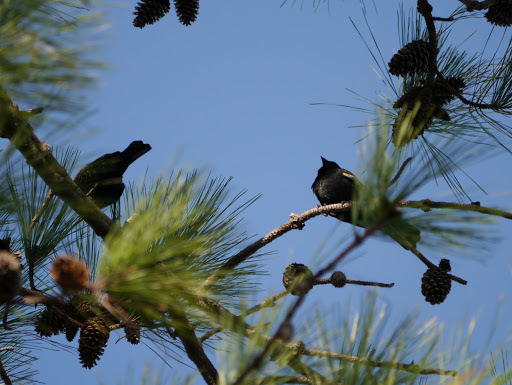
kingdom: Animalia
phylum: Chordata
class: Aves
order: Passeriformes
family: Icteridae
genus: Agelaius
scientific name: Agelaius phoeniceus
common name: Red-winged blackbird
